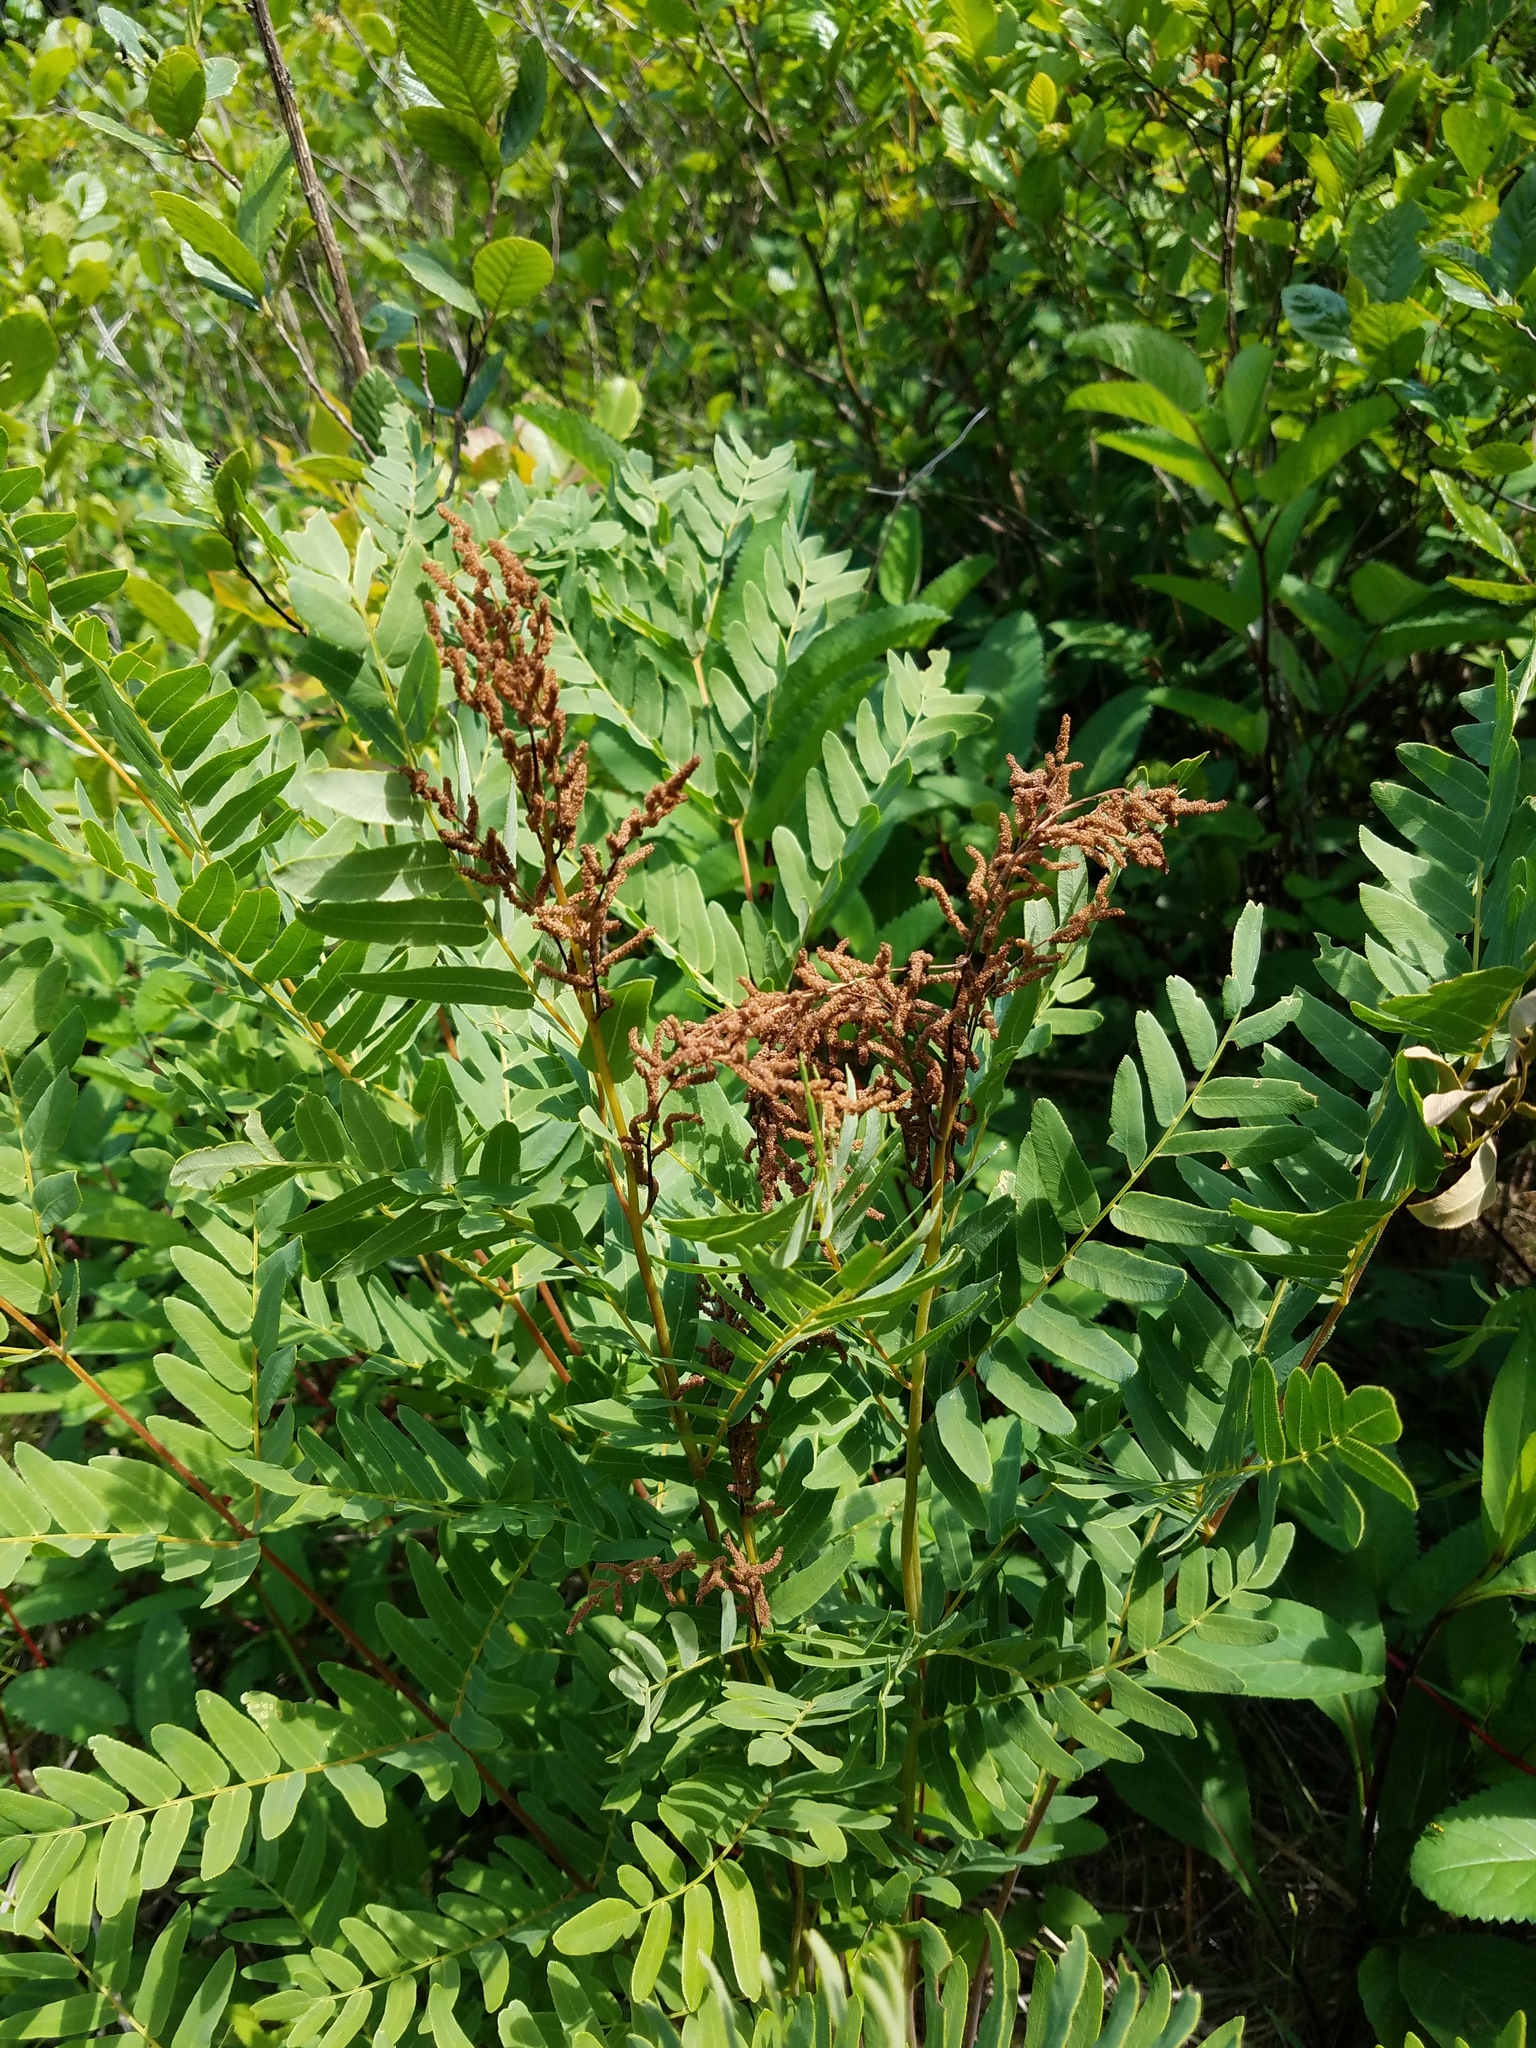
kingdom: Plantae
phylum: Tracheophyta
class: Polypodiopsida
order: Osmundales
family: Osmundaceae
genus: Osmunda
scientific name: Osmunda spectabilis
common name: American royal fern
